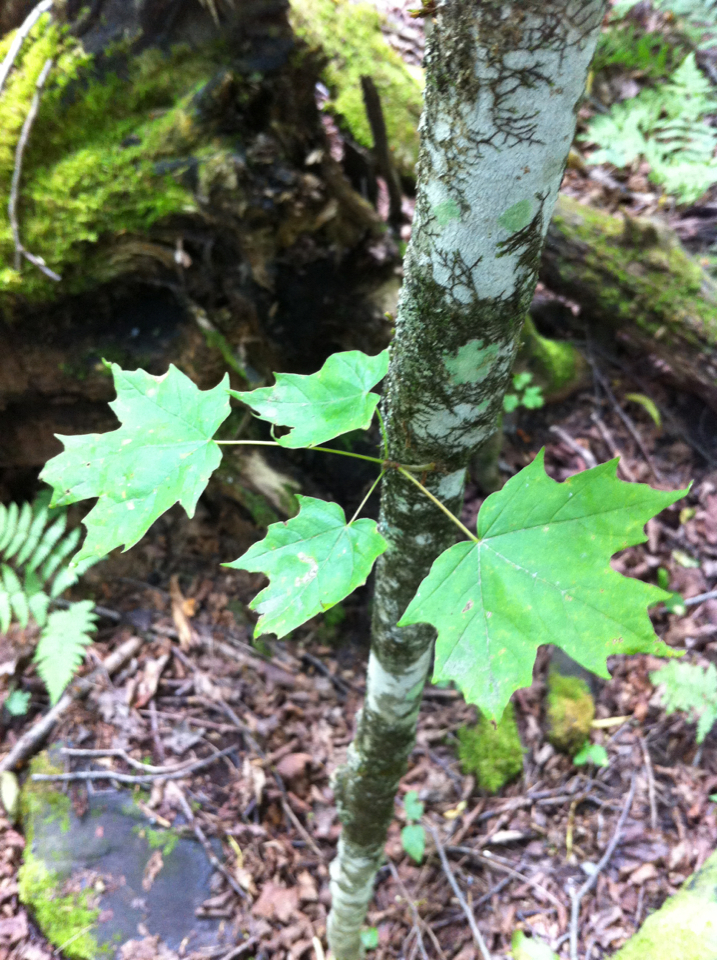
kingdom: Plantae
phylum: Tracheophyta
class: Magnoliopsida
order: Sapindales
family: Sapindaceae
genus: Acer
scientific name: Acer saccharum
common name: Sugar maple
